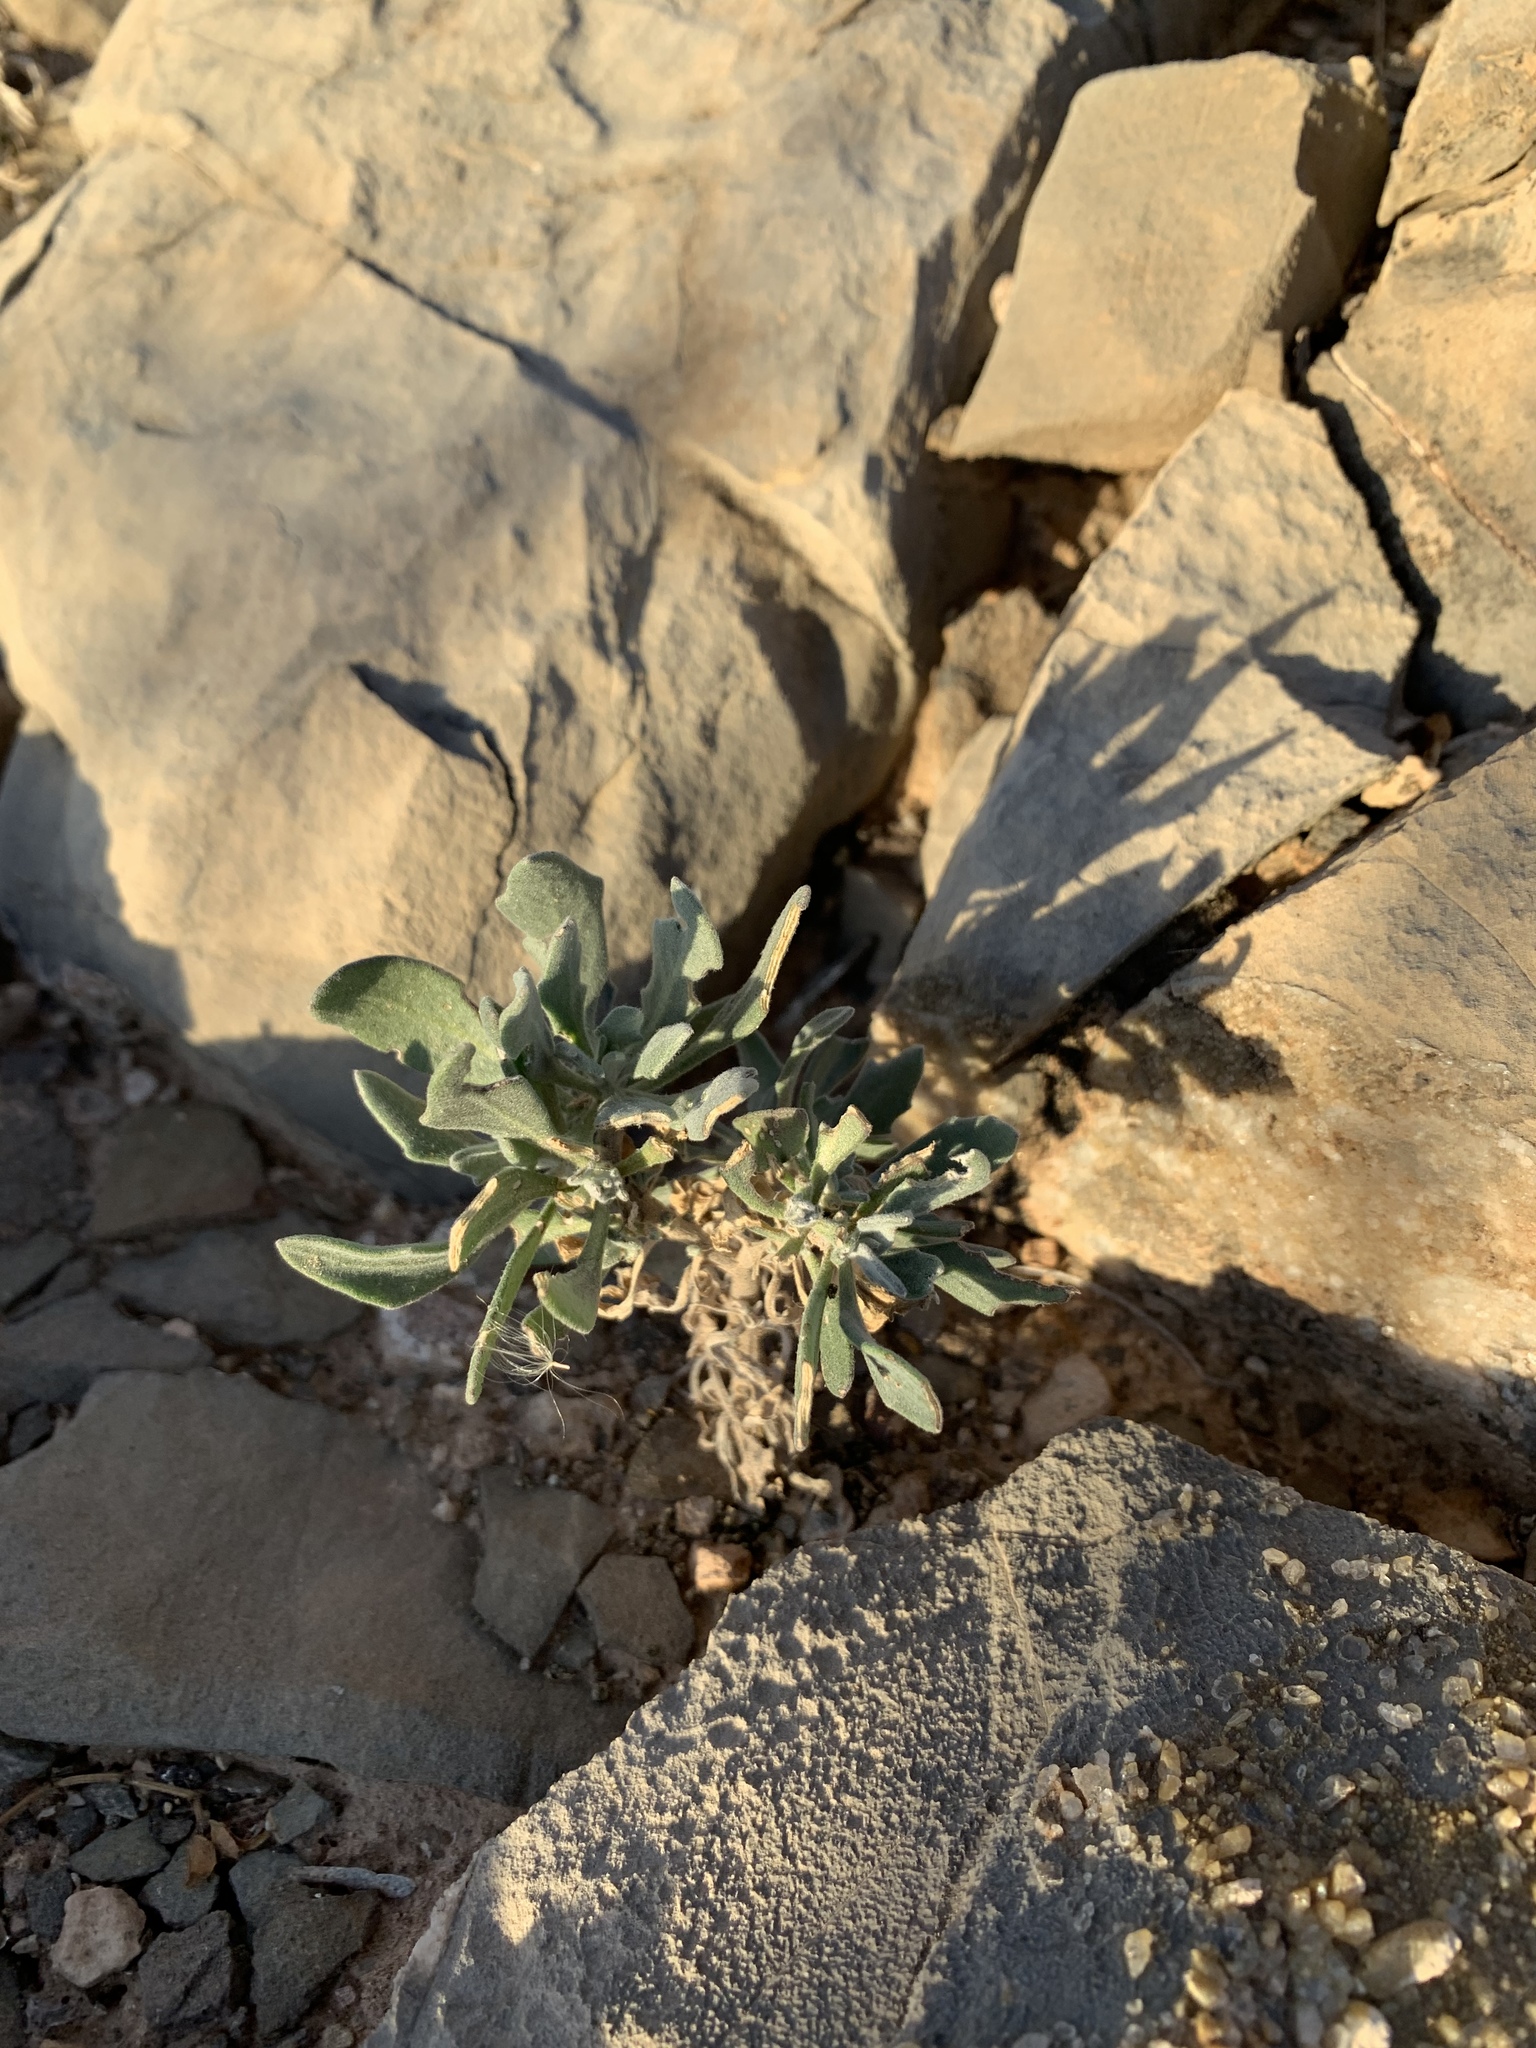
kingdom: Plantae
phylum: Tracheophyta
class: Magnoliopsida
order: Brassicales
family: Brassicaceae
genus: Nerisyrenia
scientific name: Nerisyrenia camporum
